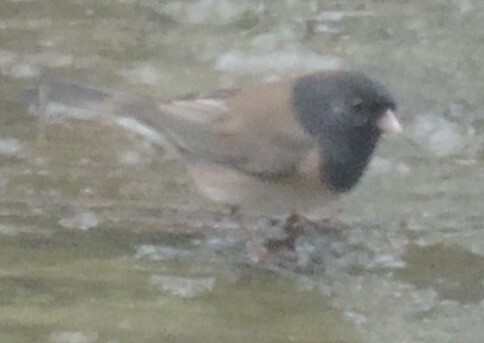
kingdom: Animalia
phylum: Chordata
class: Aves
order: Passeriformes
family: Passerellidae
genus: Junco
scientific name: Junco hyemalis
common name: Dark-eyed junco
